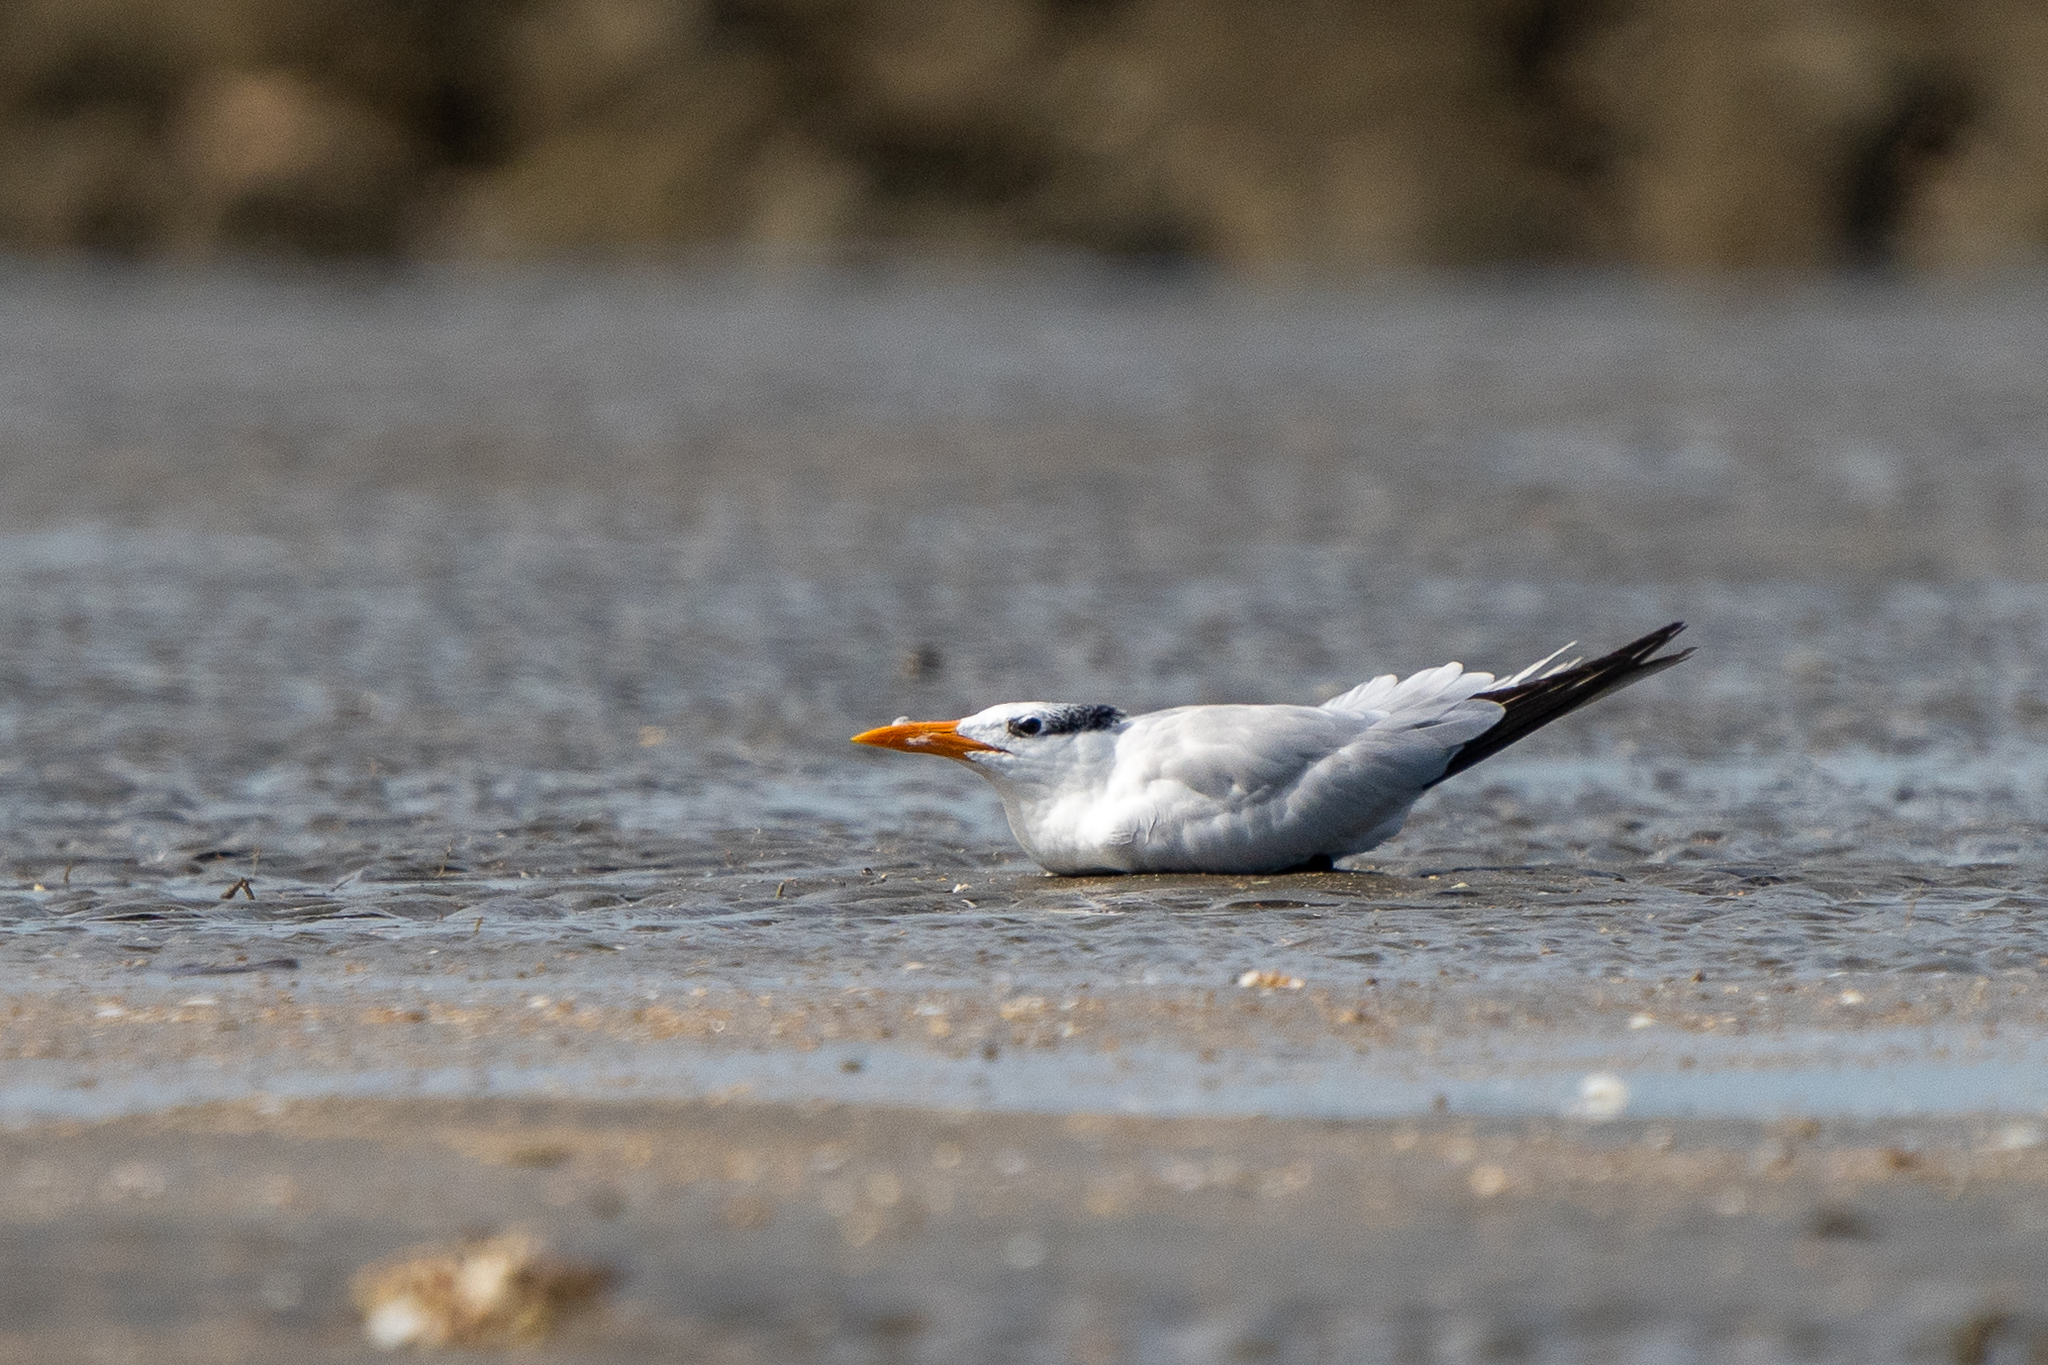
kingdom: Animalia
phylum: Chordata
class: Aves
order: Charadriiformes
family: Laridae
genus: Thalasseus
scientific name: Thalasseus maximus
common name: Royal tern
